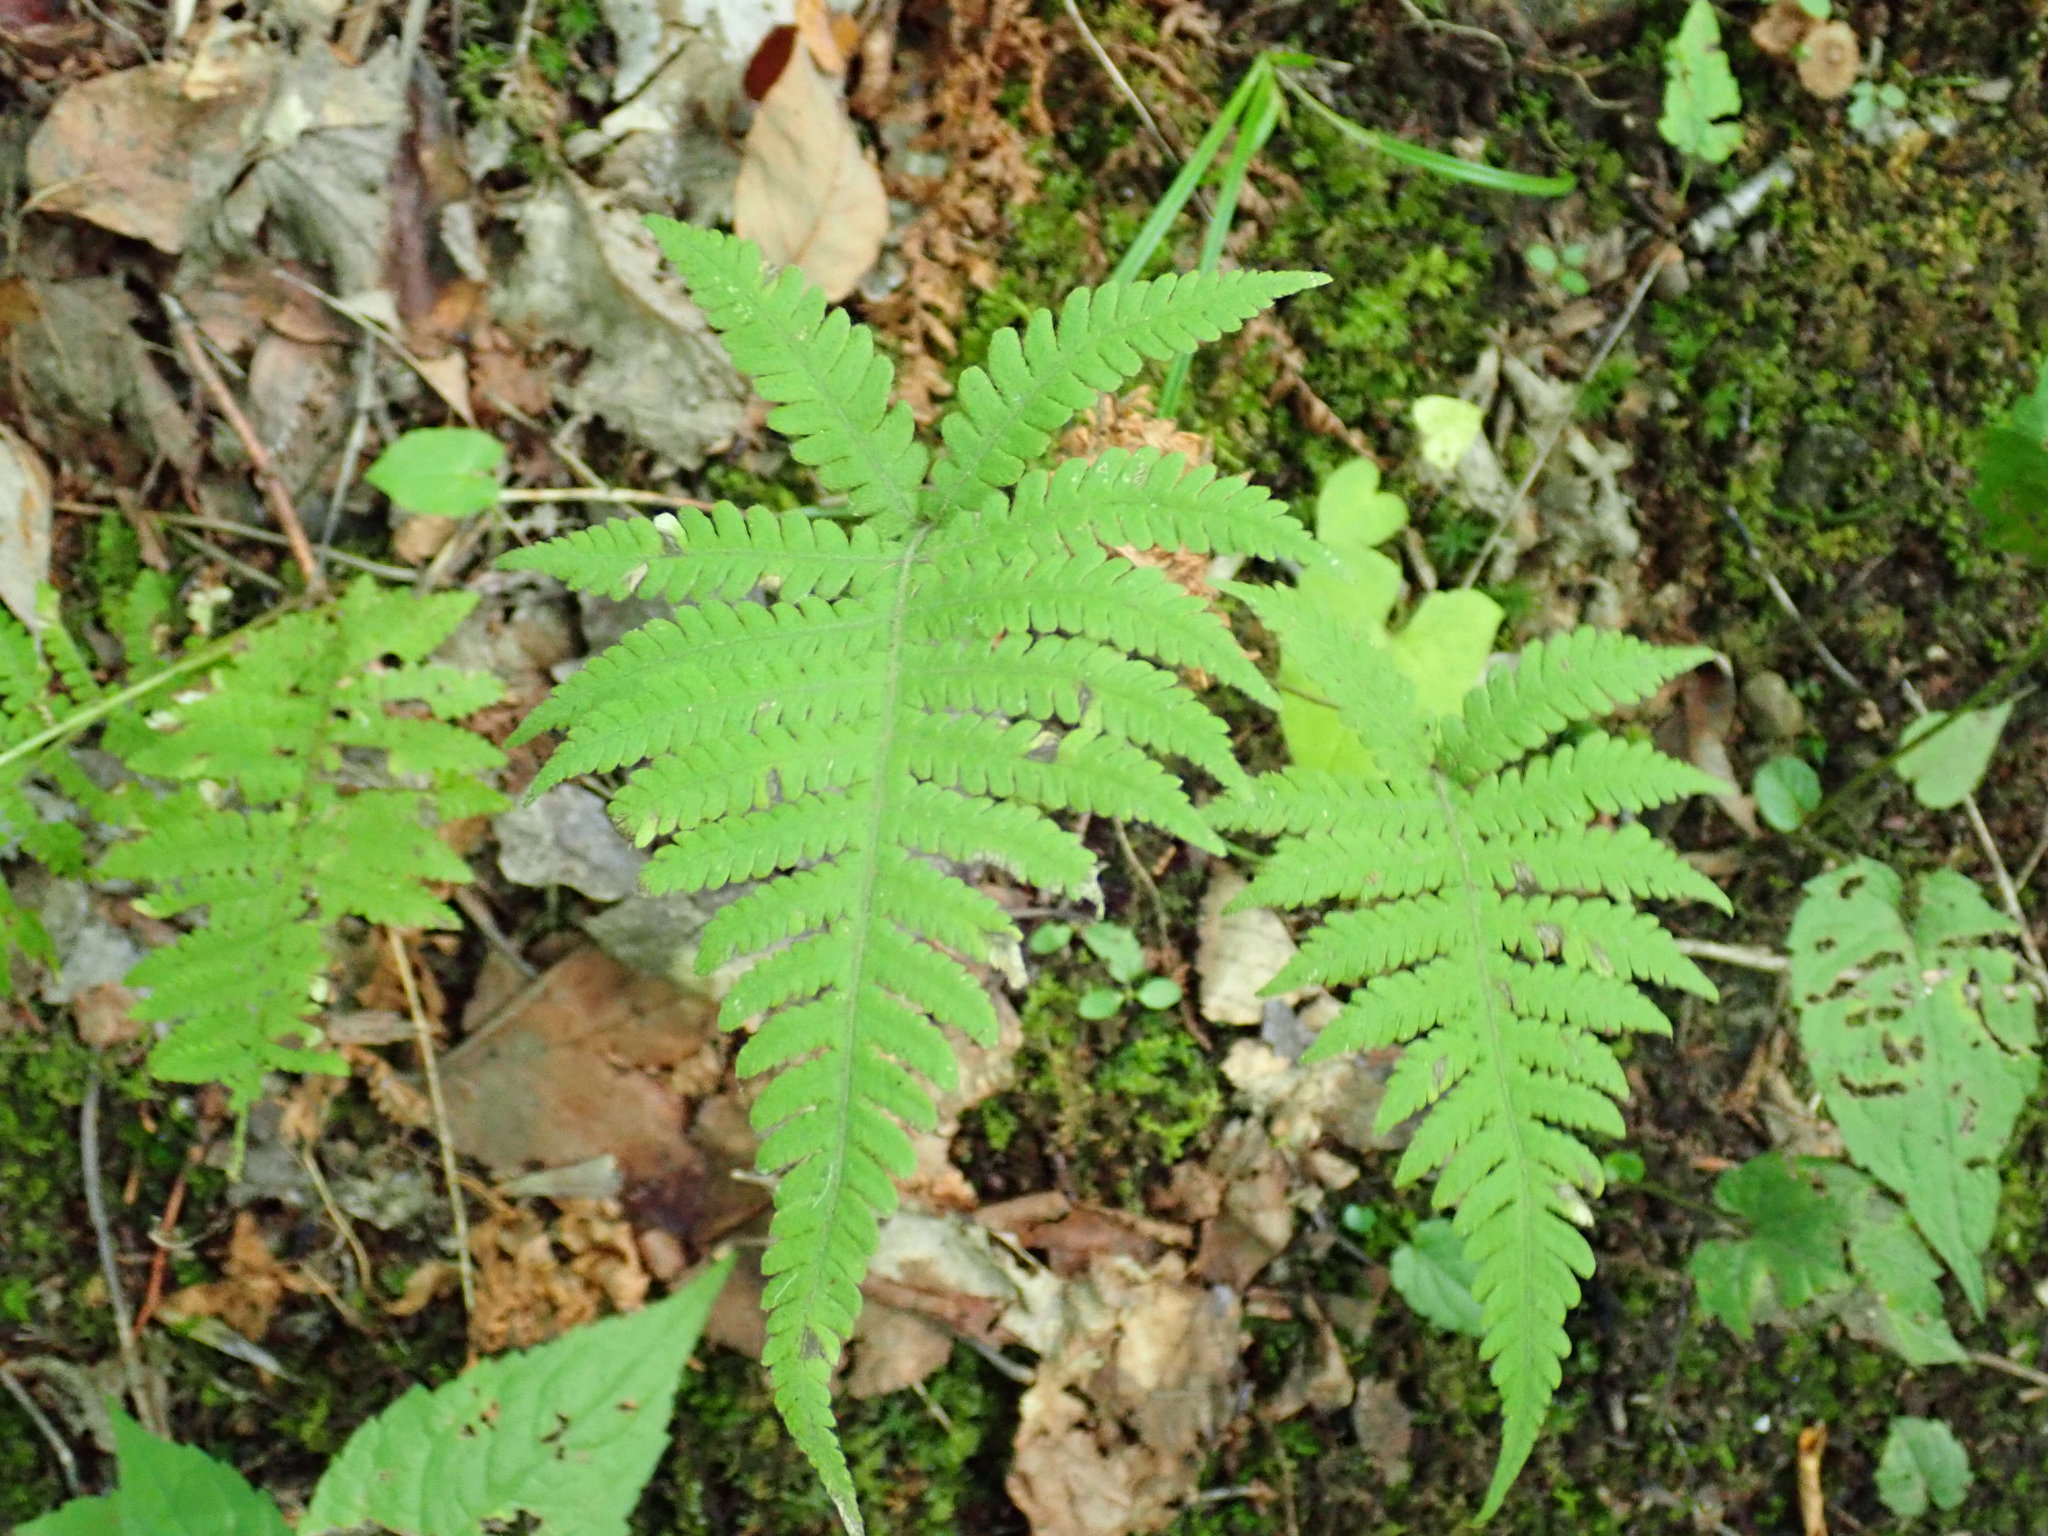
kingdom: Plantae
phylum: Tracheophyta
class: Polypodiopsida
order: Polypodiales
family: Thelypteridaceae
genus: Phegopteris
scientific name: Phegopteris connectilis
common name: Beech fern
